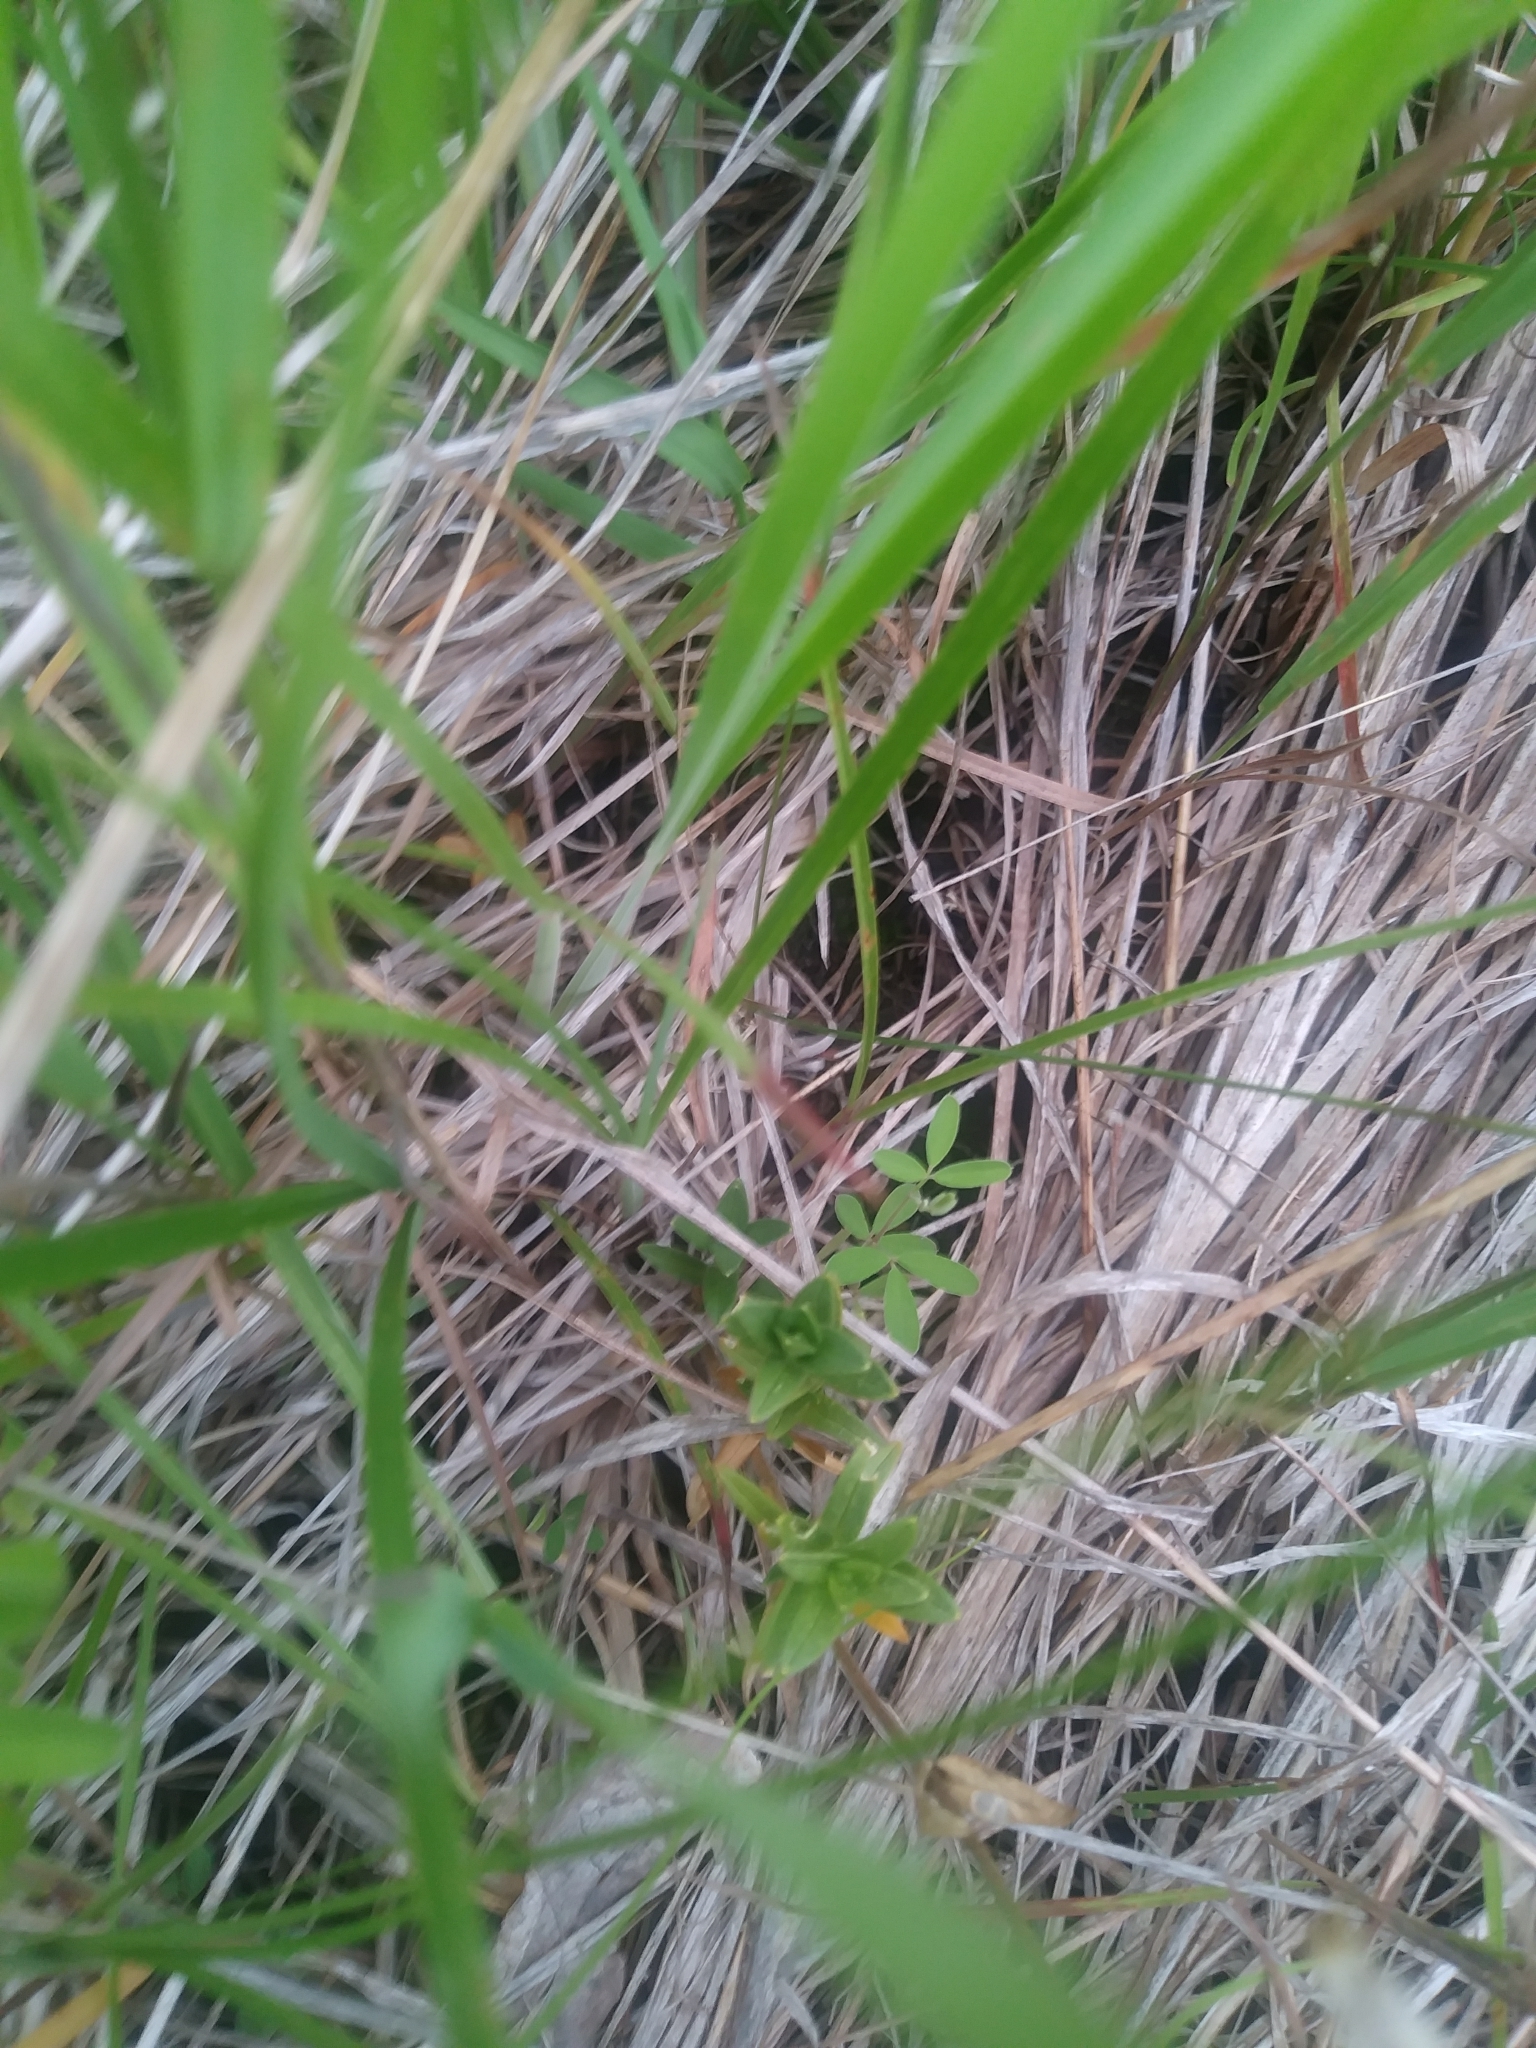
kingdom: Plantae
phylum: Tracheophyta
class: Magnoliopsida
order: Caryophyllales
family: Caryophyllaceae
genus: Cerastium
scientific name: Cerastium velutinum
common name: Barren chickweed
